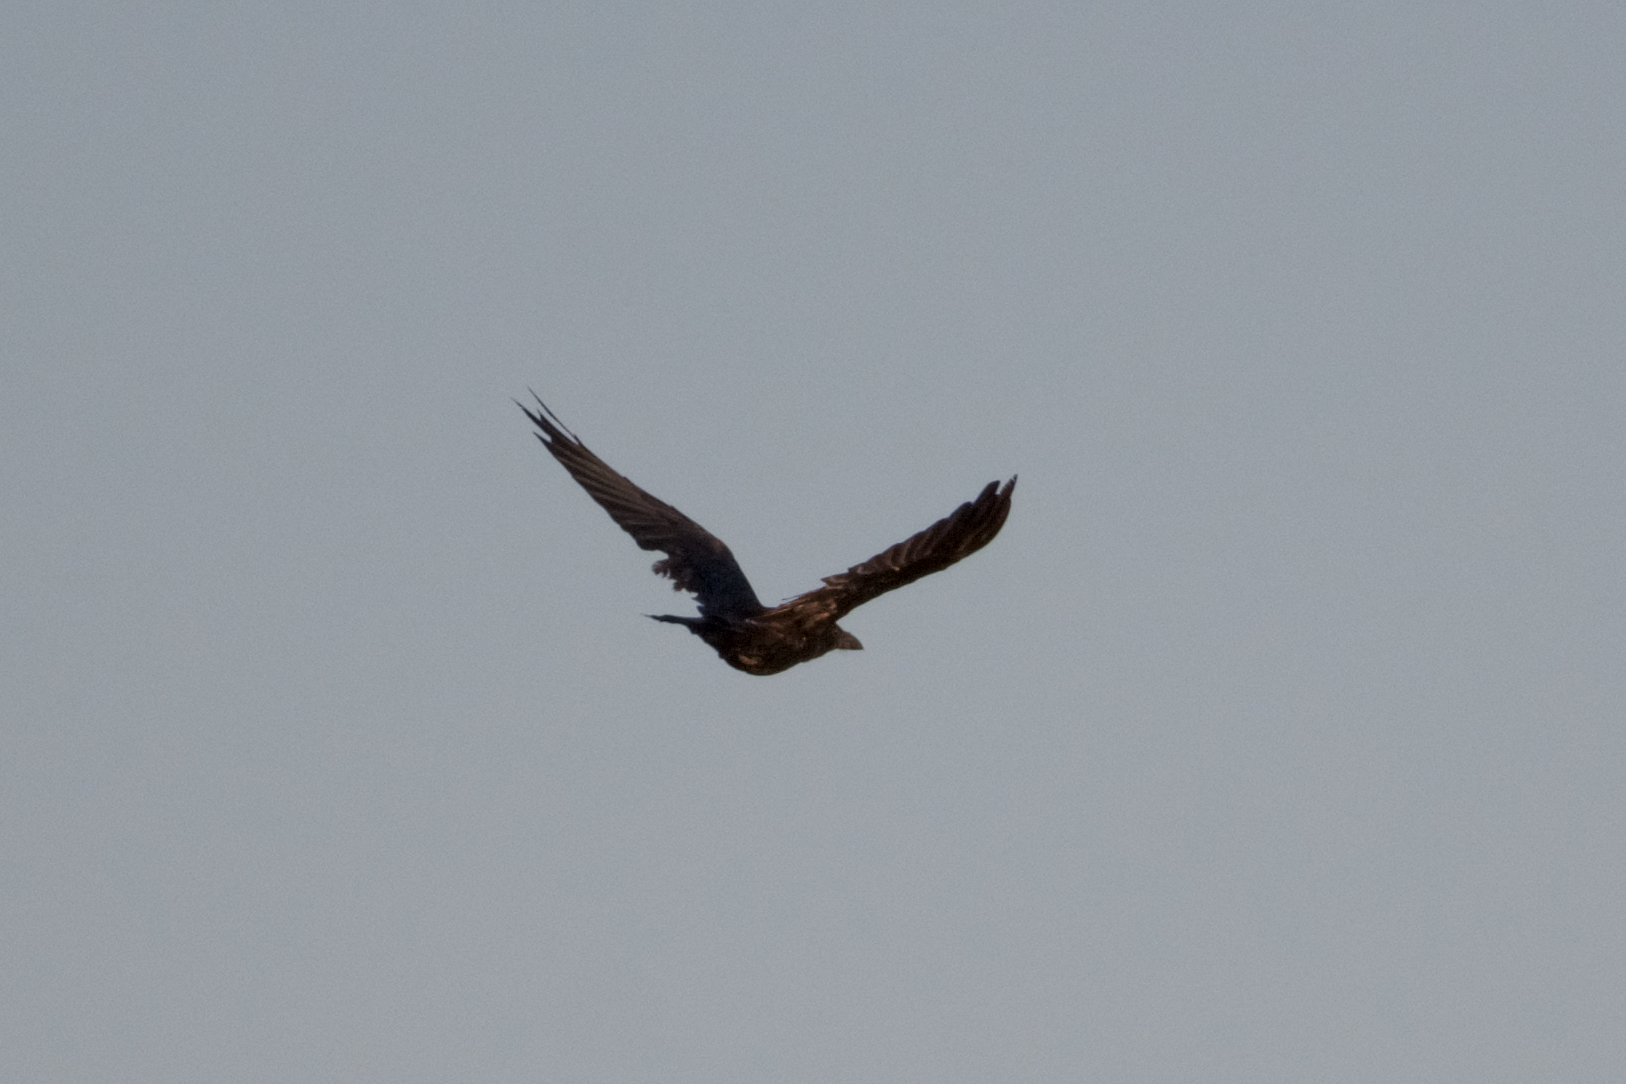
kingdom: Animalia
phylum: Chordata
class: Aves
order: Passeriformes
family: Corvidae
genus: Corvus
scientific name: Corvus corax
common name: Common raven
